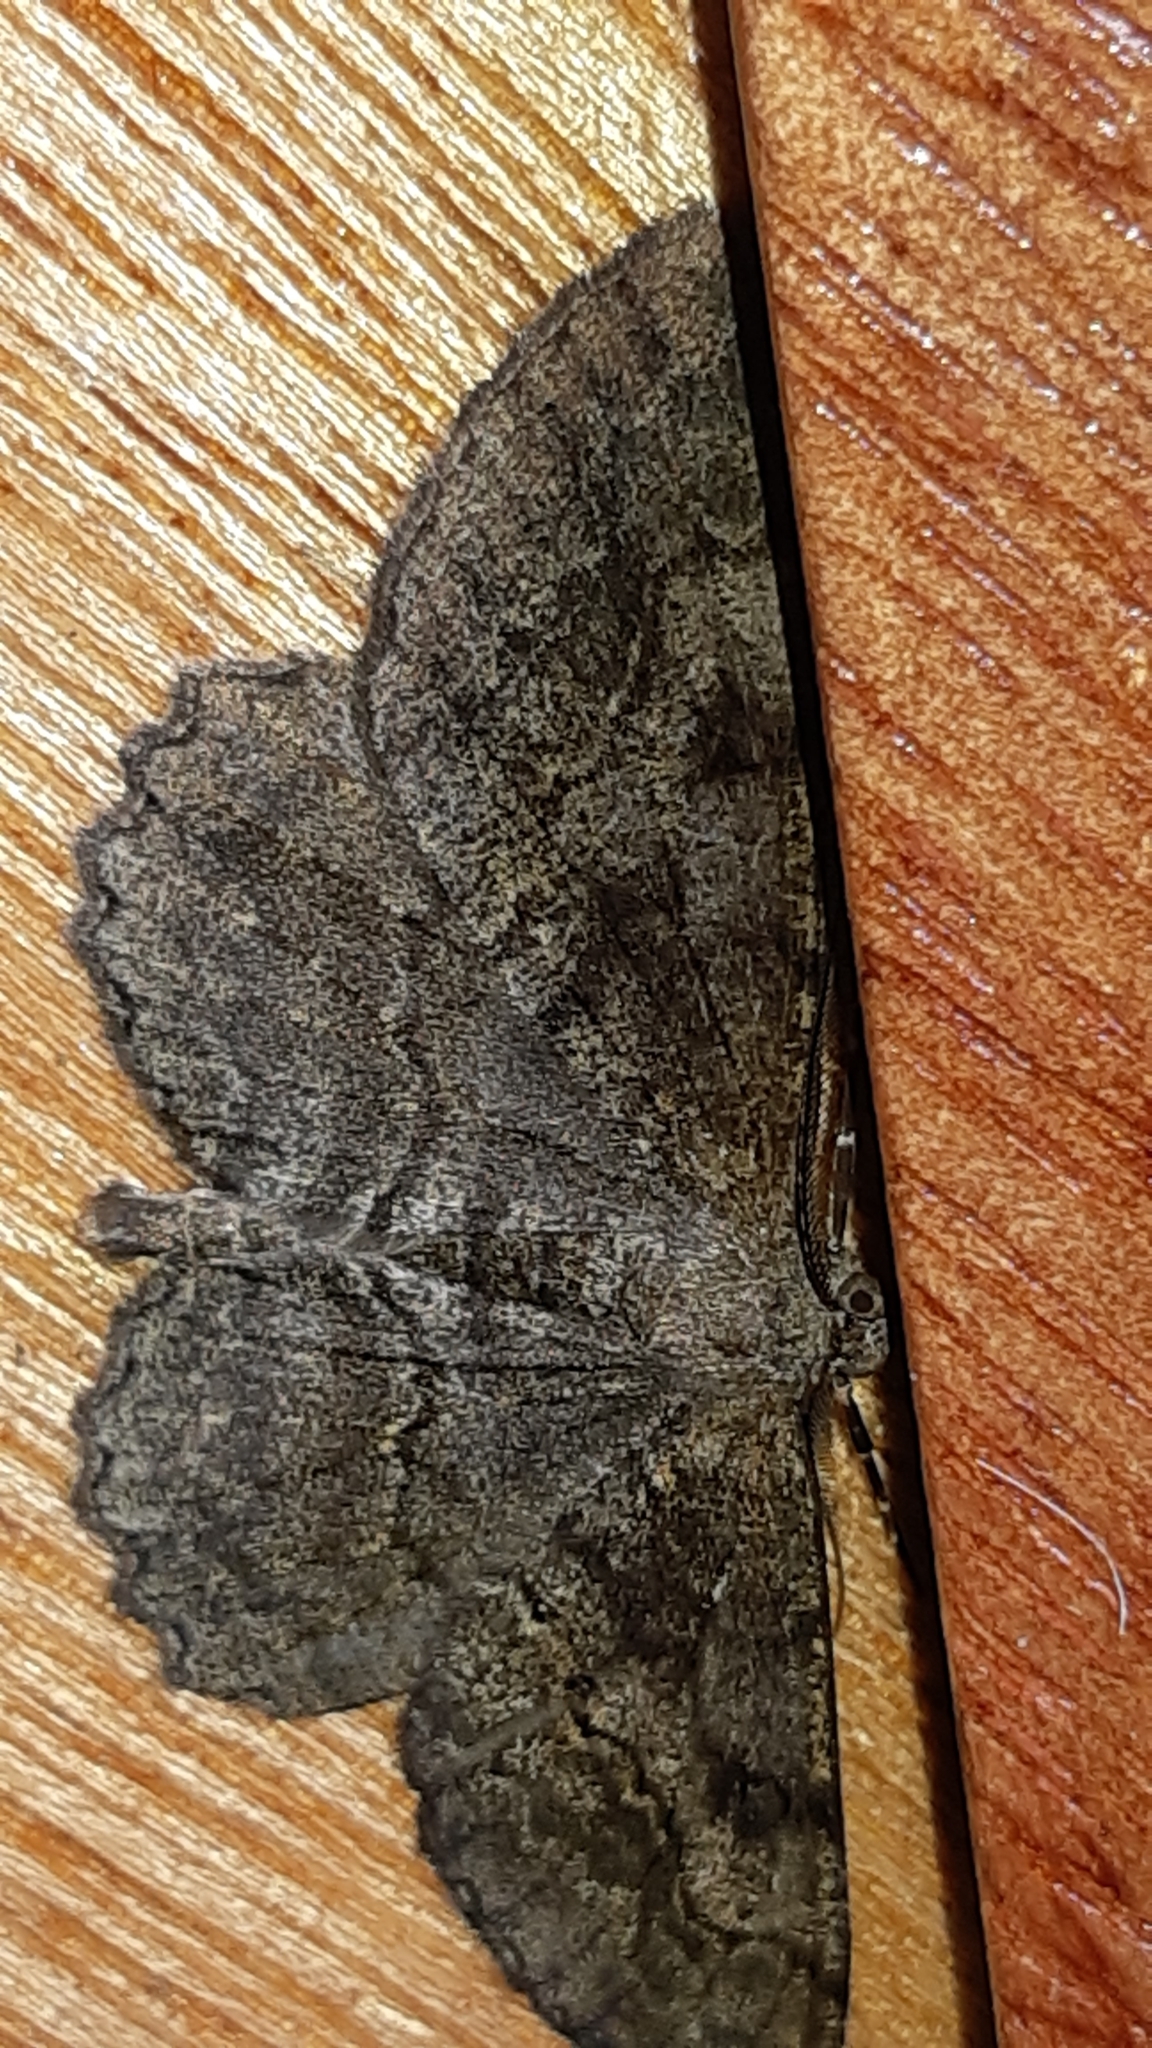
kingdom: Animalia
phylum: Arthropoda
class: Insecta
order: Lepidoptera
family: Geometridae
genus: Alcis
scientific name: Alcis repandata
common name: Mottled beauty
